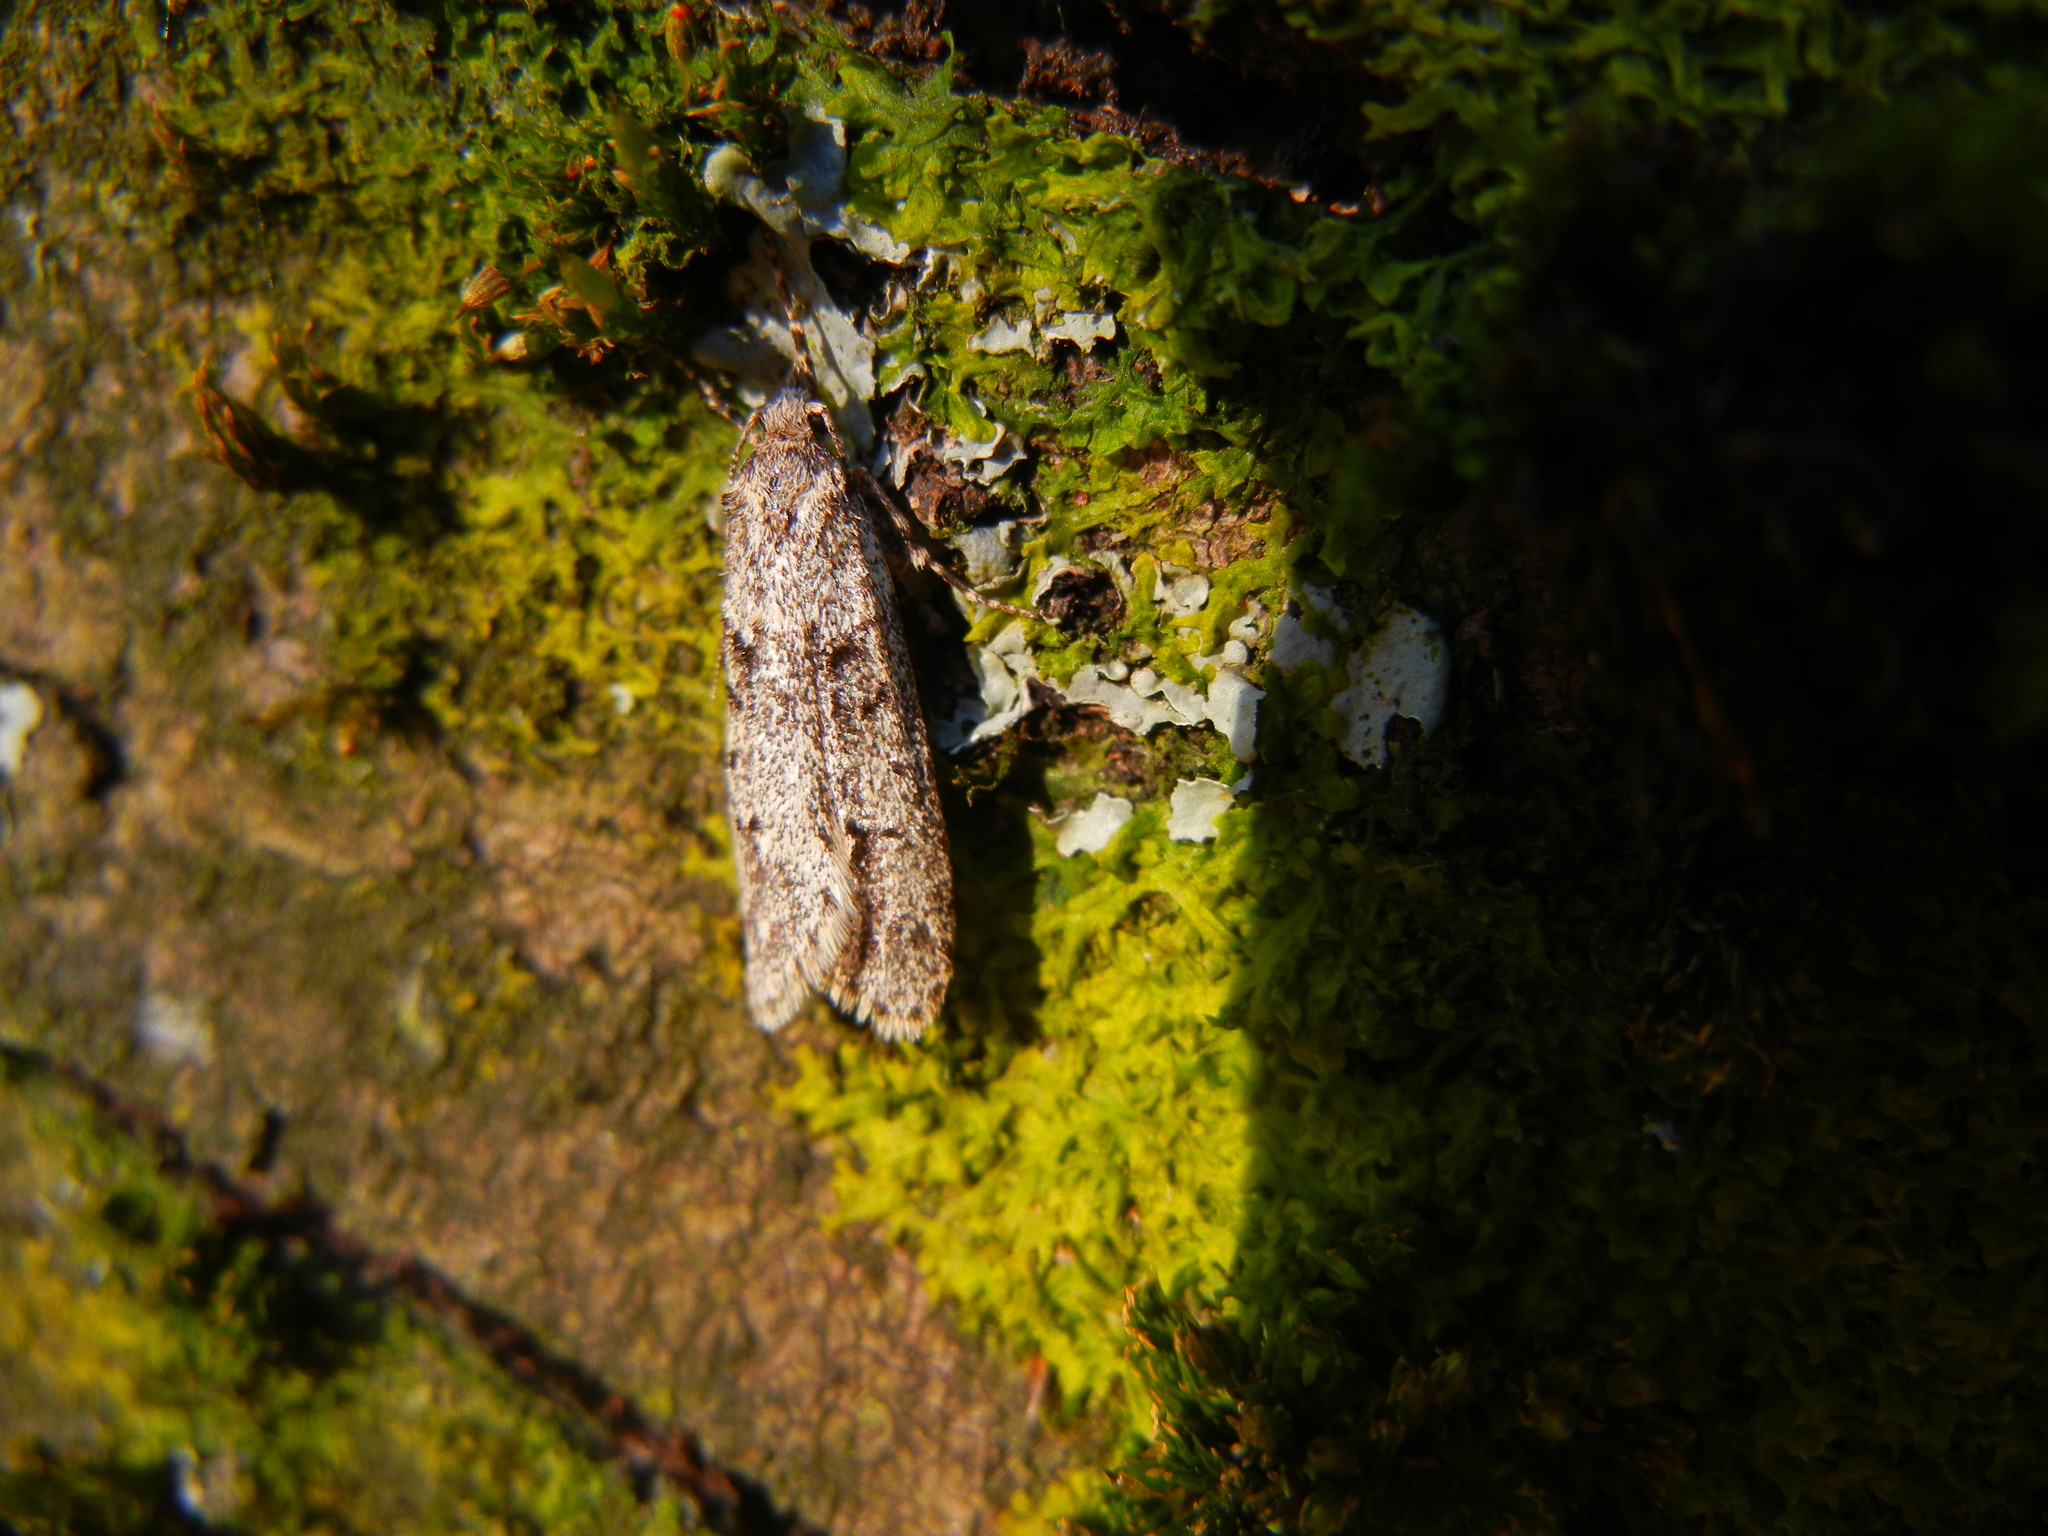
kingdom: Animalia
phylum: Arthropoda
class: Insecta
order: Lepidoptera
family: Lypusidae
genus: Diurnea
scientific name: Diurnea fagella
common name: March tubic
